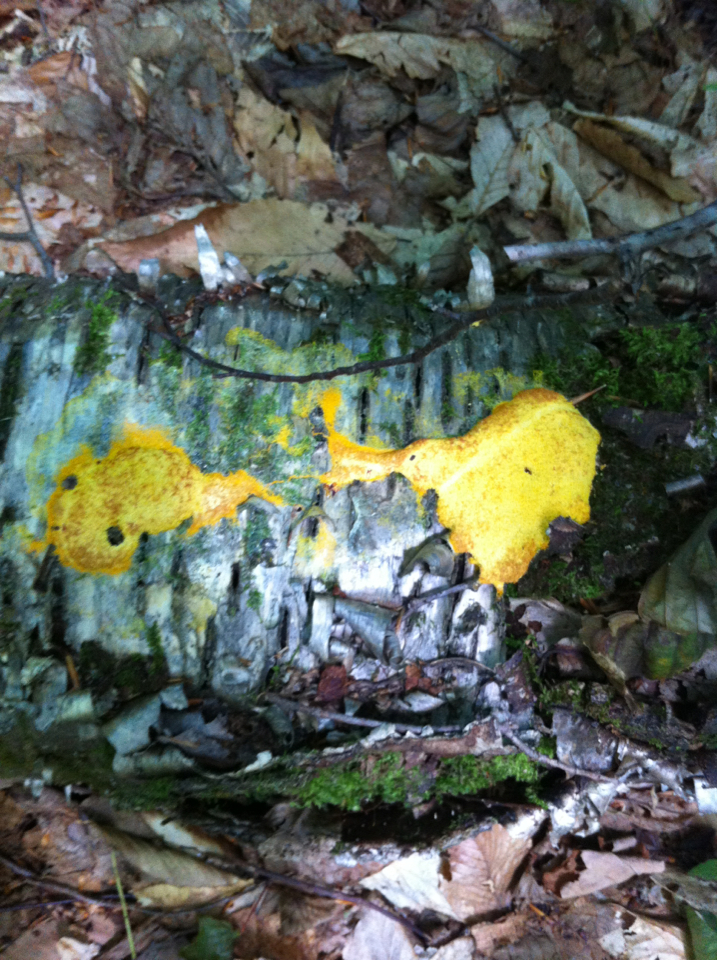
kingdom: Protozoa
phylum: Mycetozoa
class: Myxomycetes
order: Physarales
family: Physaraceae
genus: Fuligo
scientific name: Fuligo septica
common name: Dog vomit slime mold
